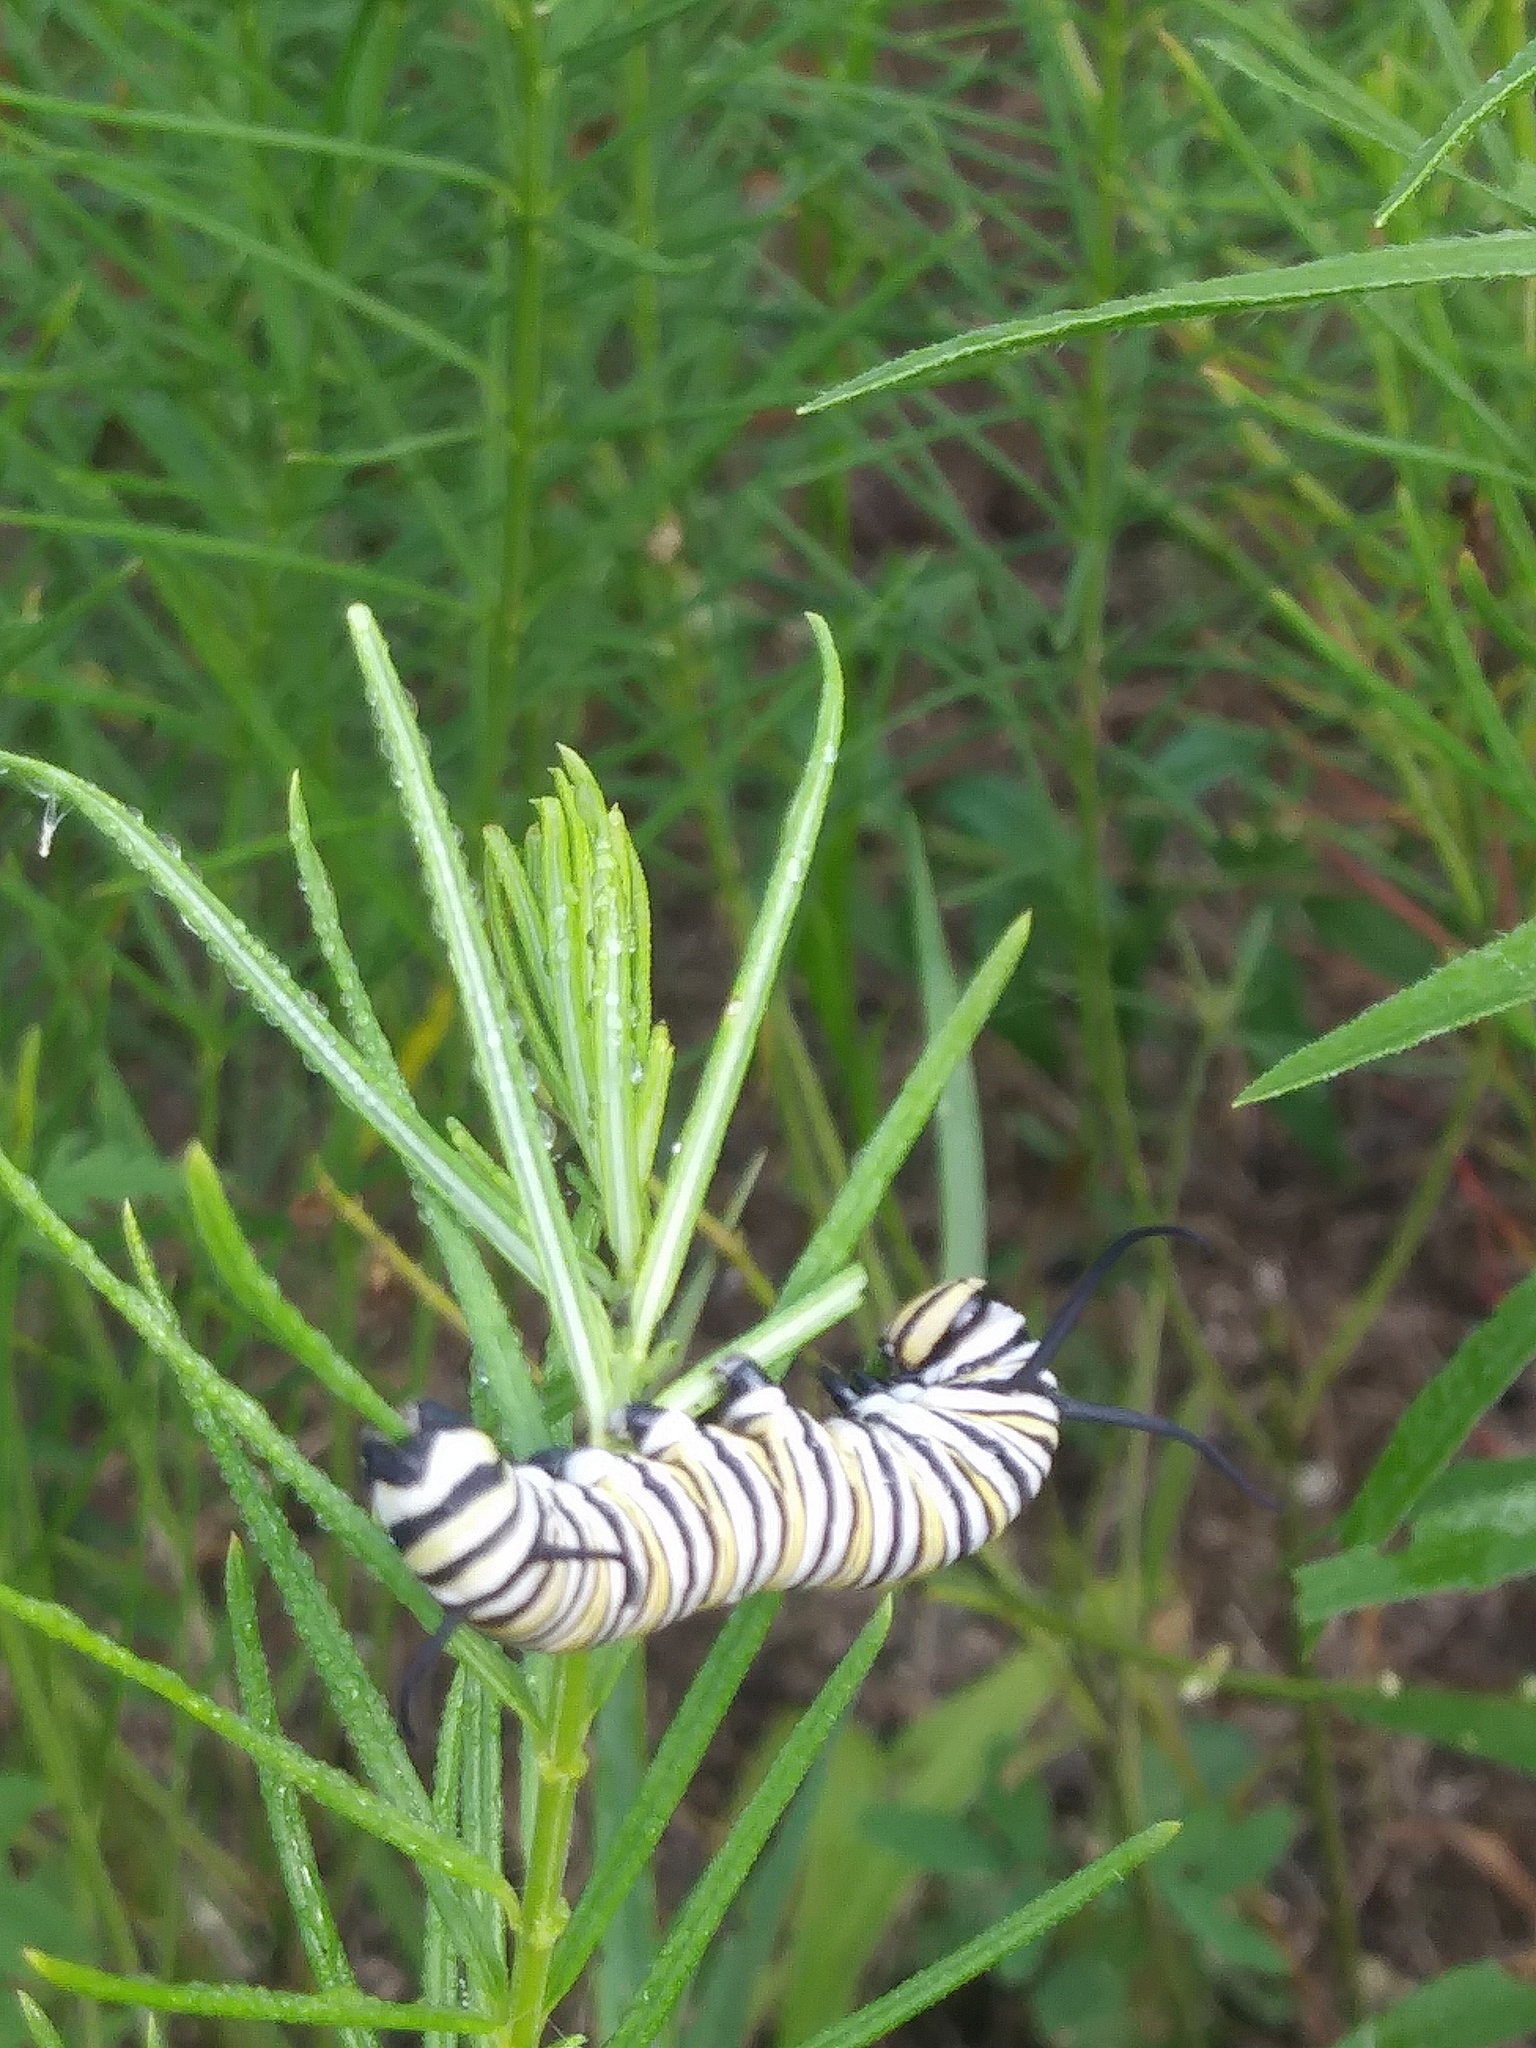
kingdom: Animalia
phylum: Arthropoda
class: Insecta
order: Lepidoptera
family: Nymphalidae
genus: Danaus
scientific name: Danaus plexippus
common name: Monarch
